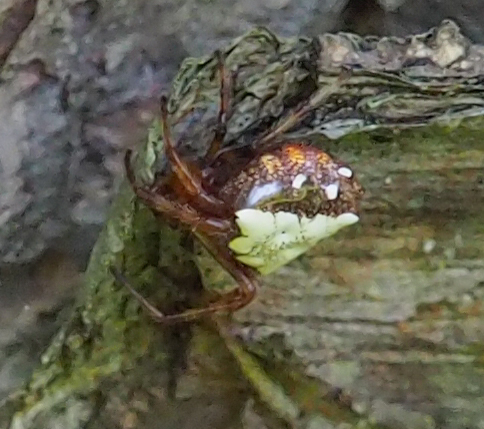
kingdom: Animalia
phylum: Arthropoda
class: Arachnida
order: Araneae
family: Araneidae
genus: Verrucosa
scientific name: Verrucosa arenata
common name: Orb weavers
